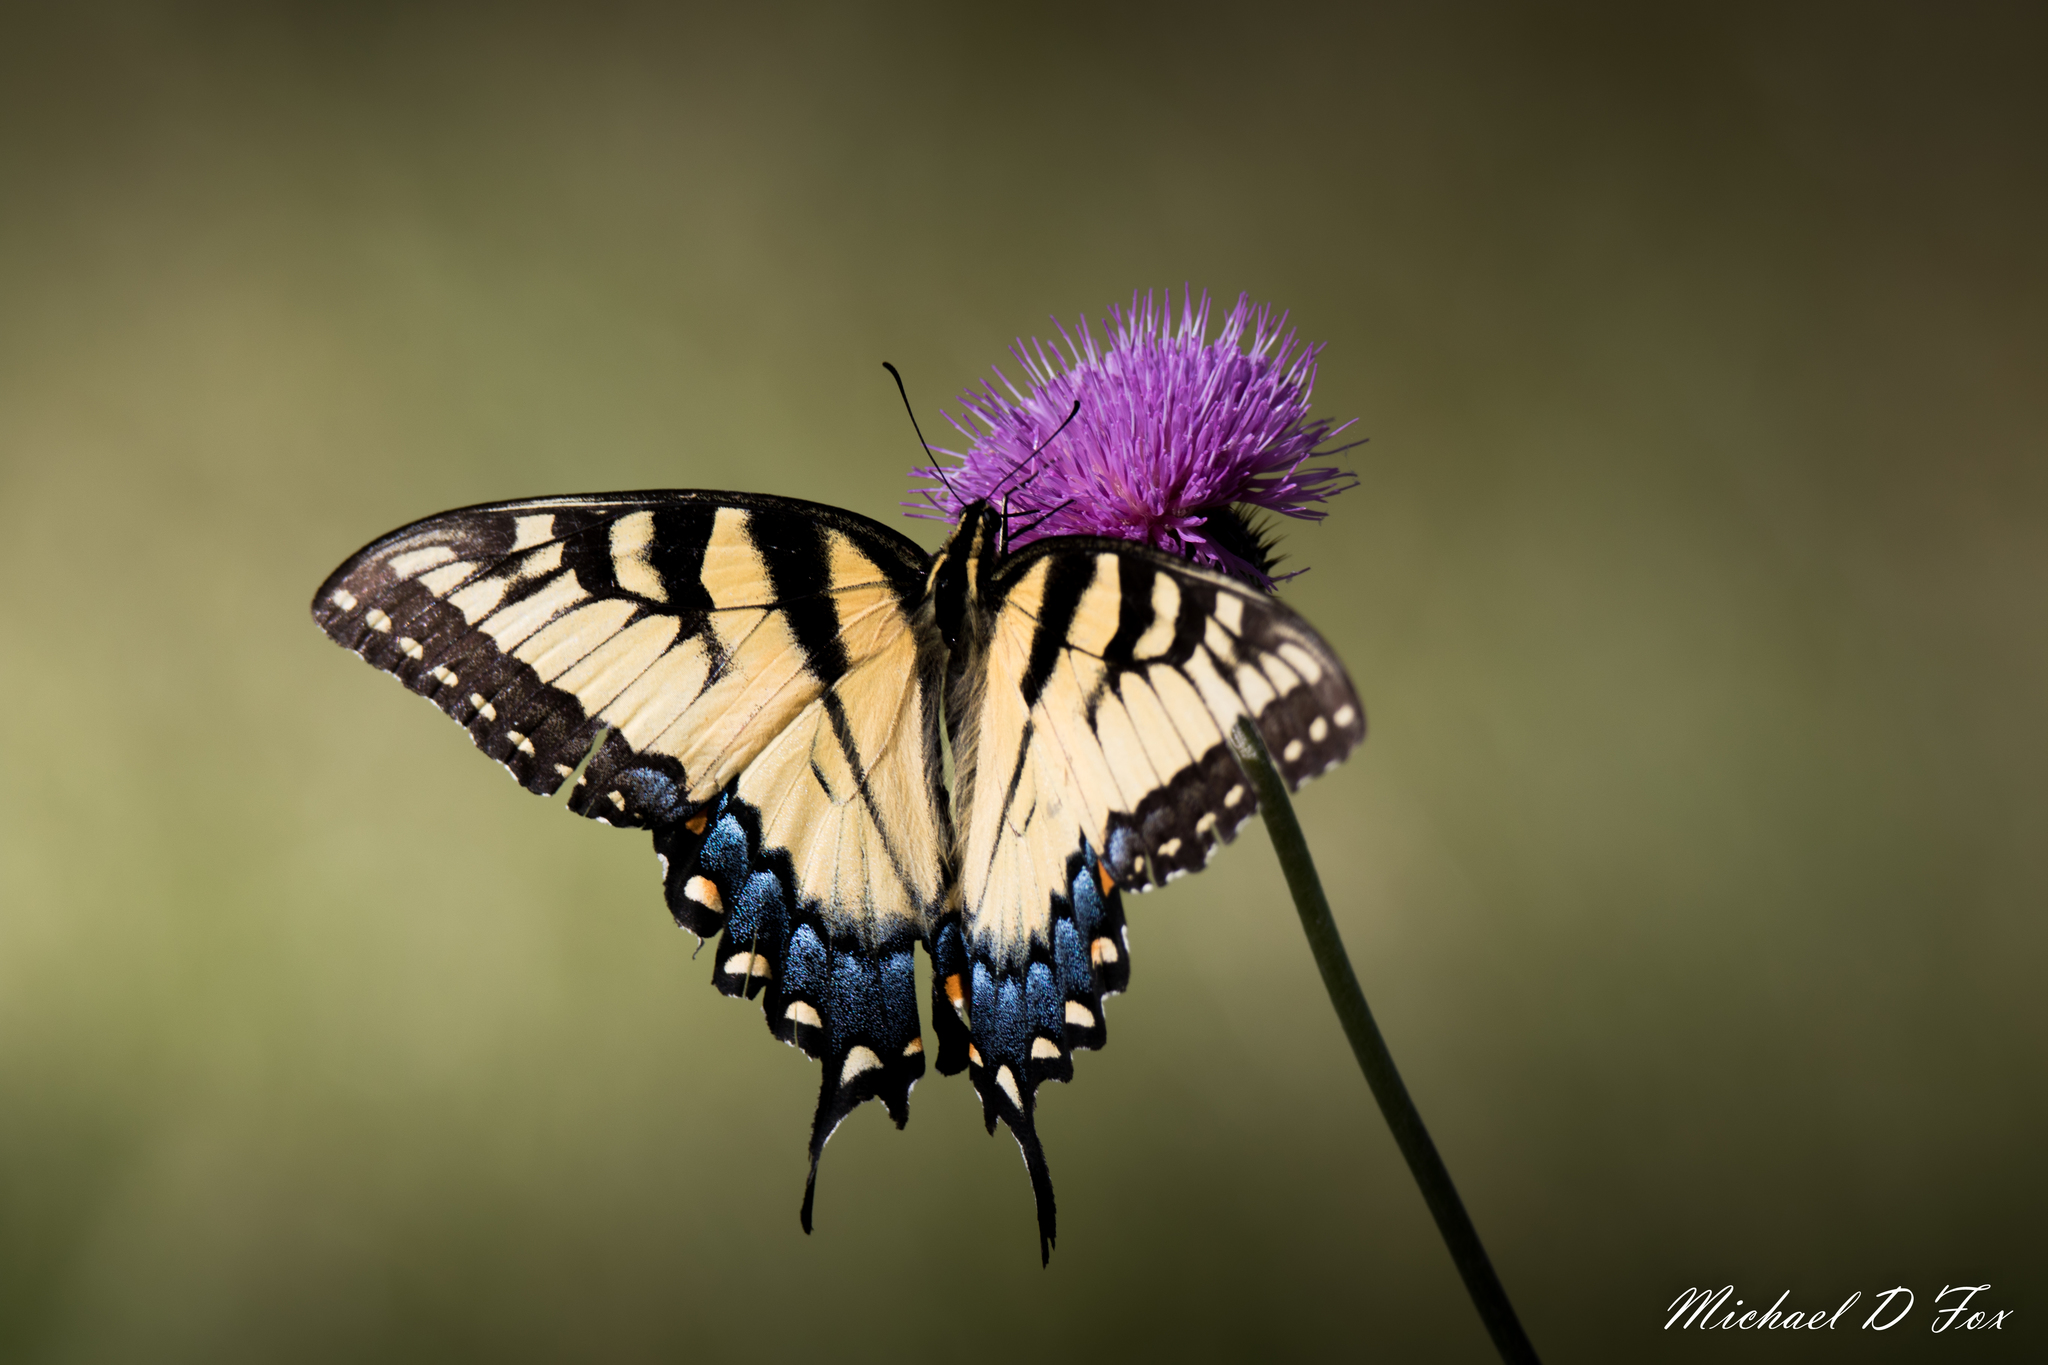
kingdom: Animalia
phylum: Arthropoda
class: Insecta
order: Lepidoptera
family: Papilionidae
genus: Papilio
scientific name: Papilio glaucus
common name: Tiger swallowtail
